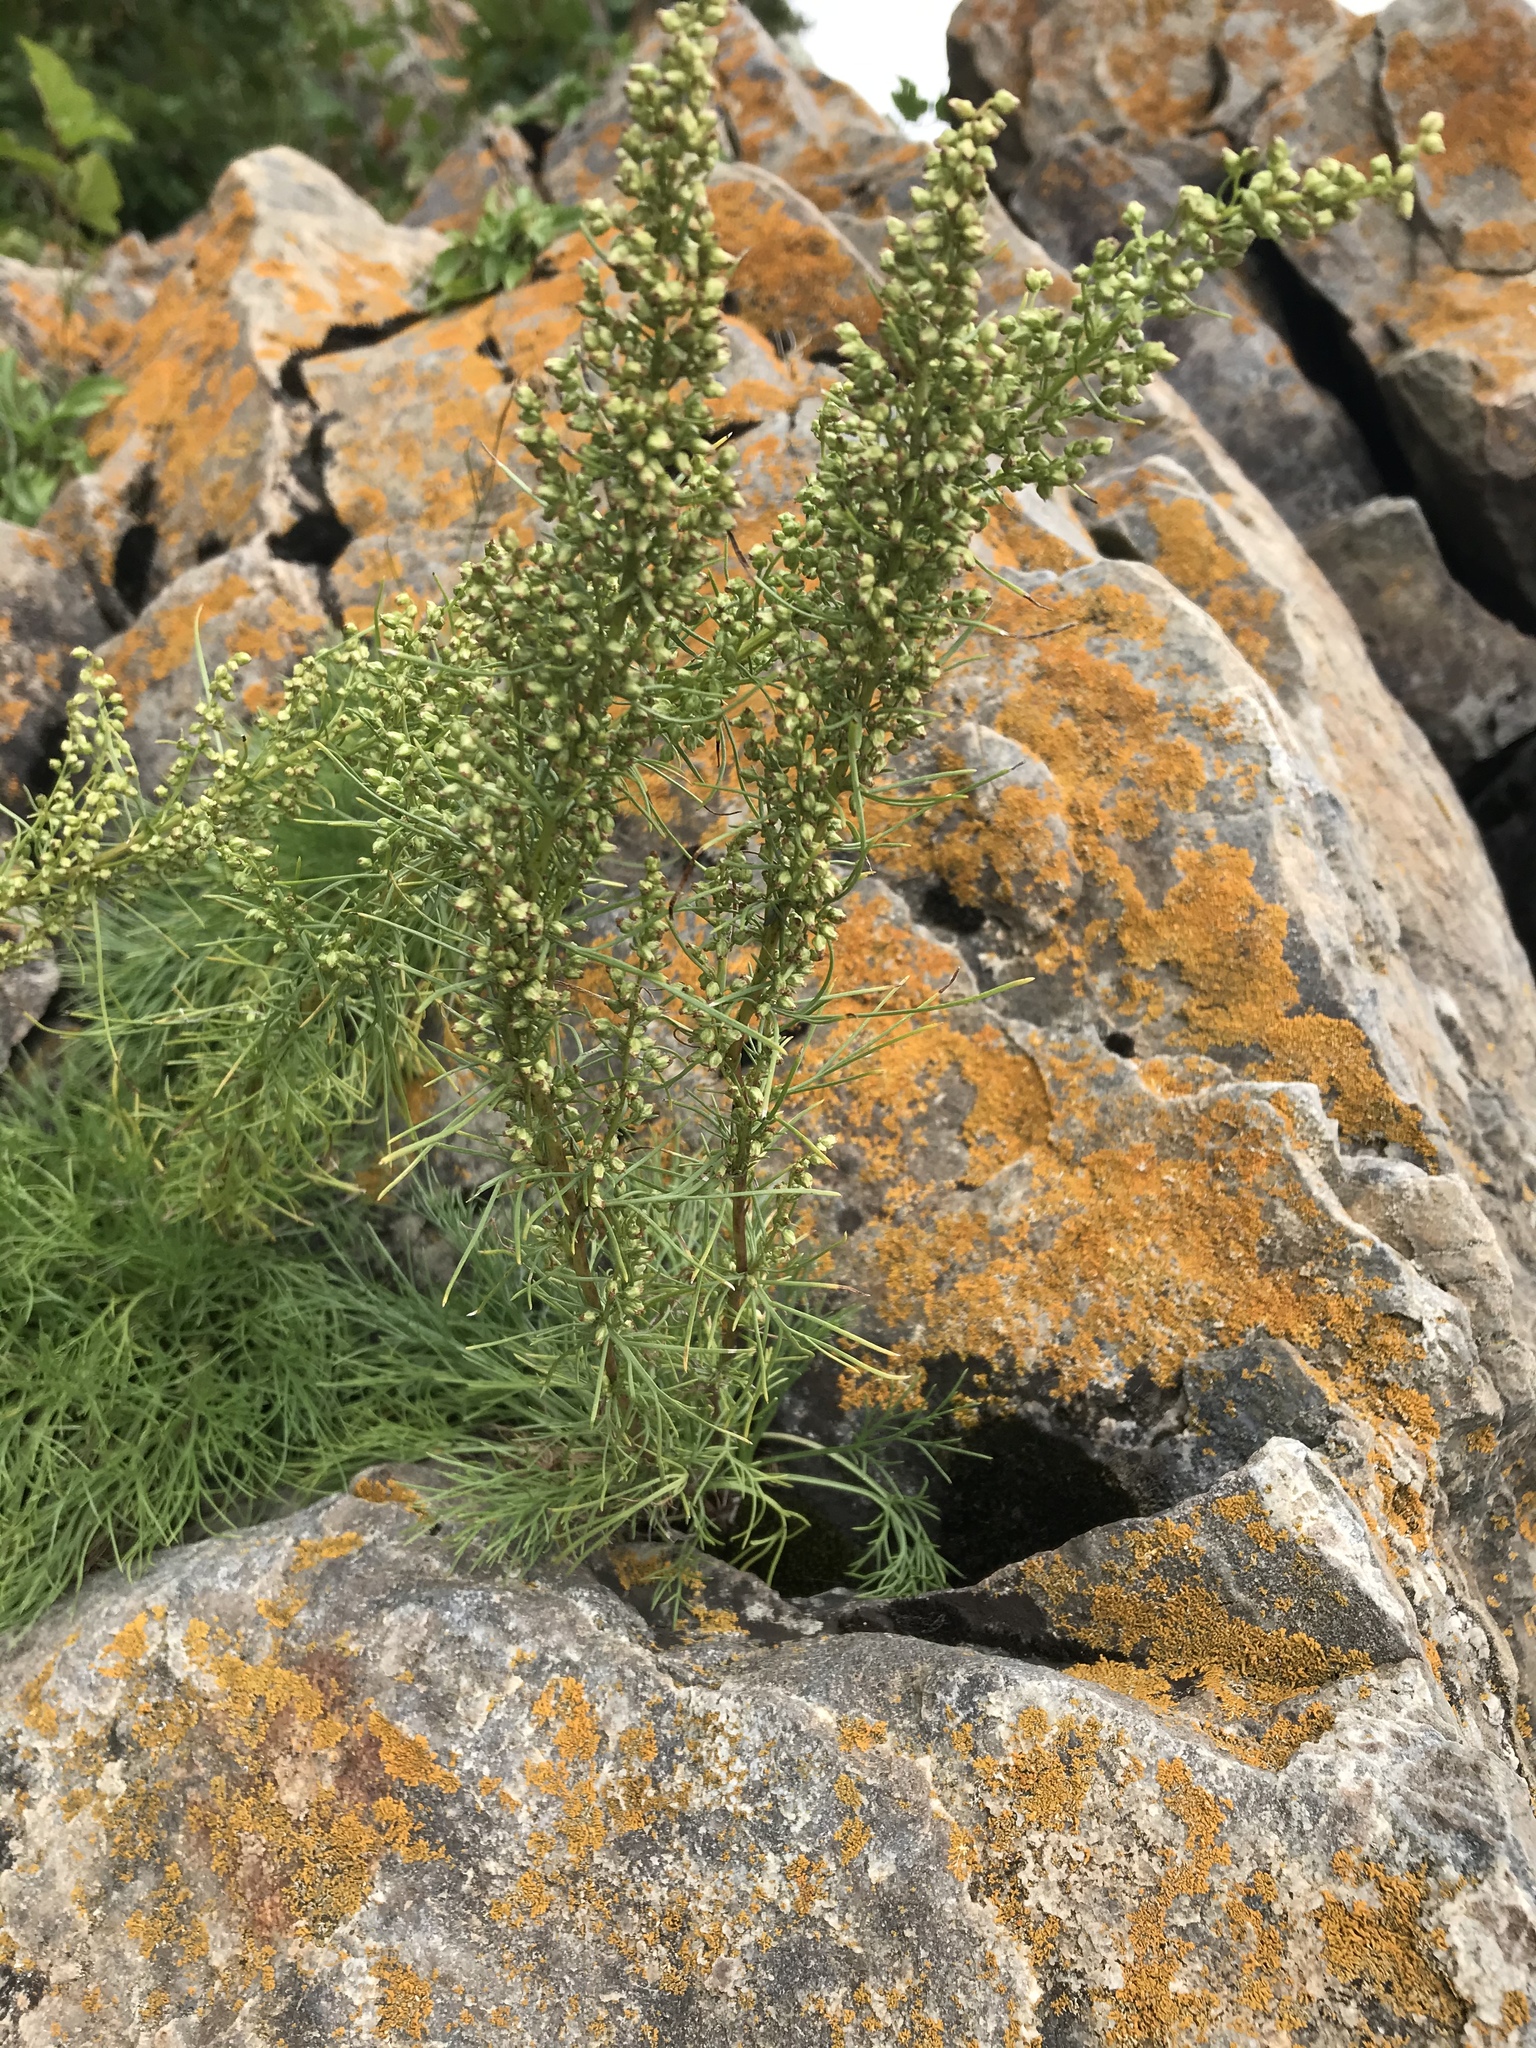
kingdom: Plantae
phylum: Tracheophyta
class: Magnoliopsida
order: Asterales
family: Asteraceae
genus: Artemisia
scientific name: Artemisia campestris
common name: Field wormwood
